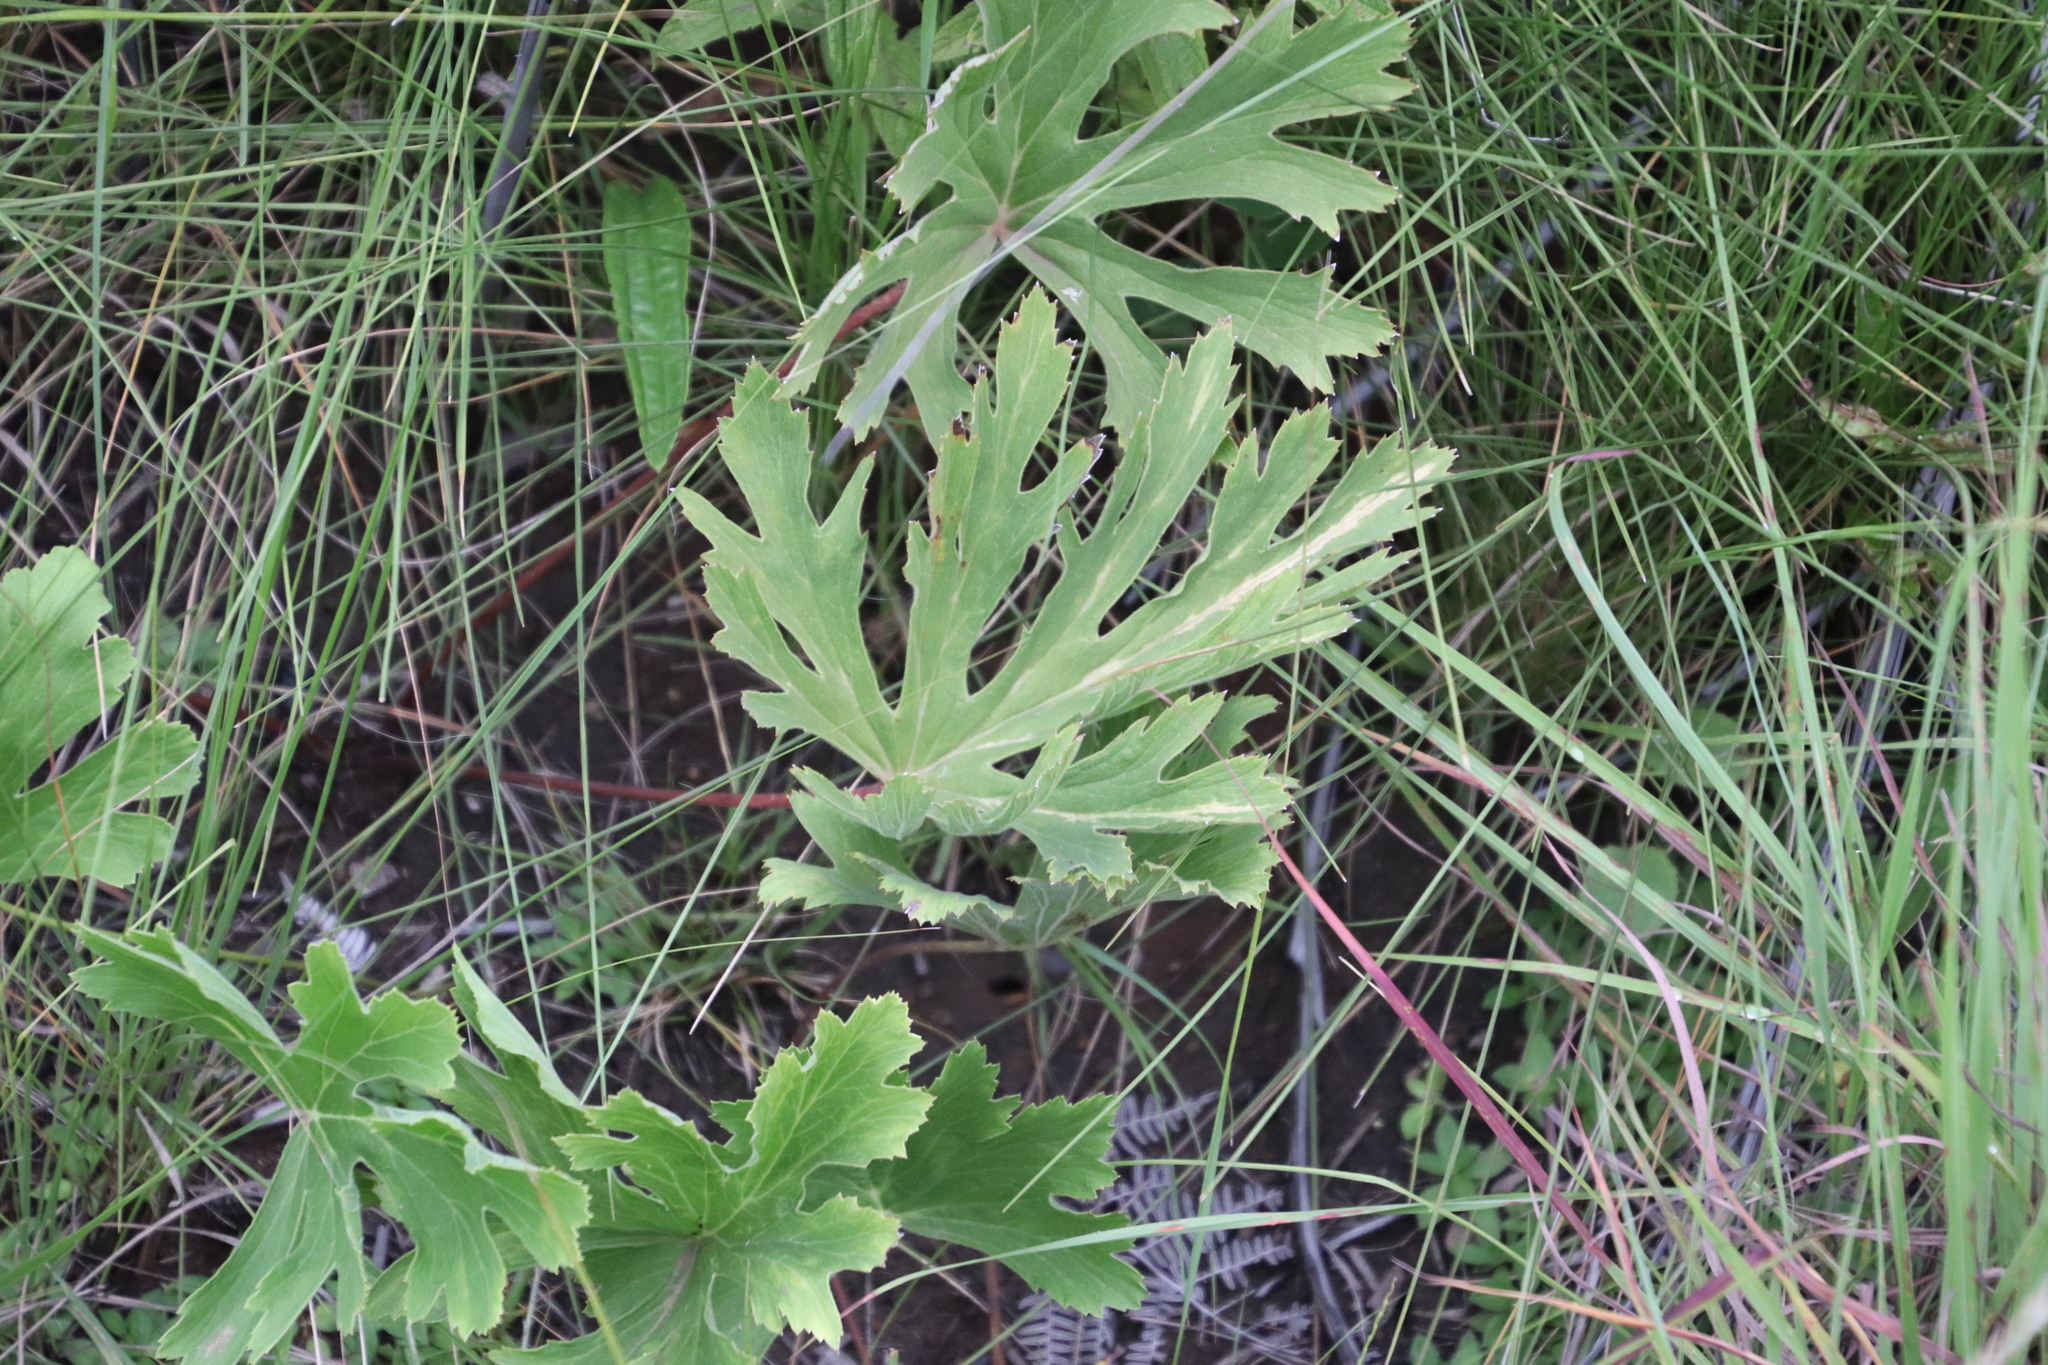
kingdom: Plantae
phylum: Tracheophyta
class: Magnoliopsida
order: Geraniales
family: Geraniaceae
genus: Pelargonium
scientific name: Pelargonium luridum
